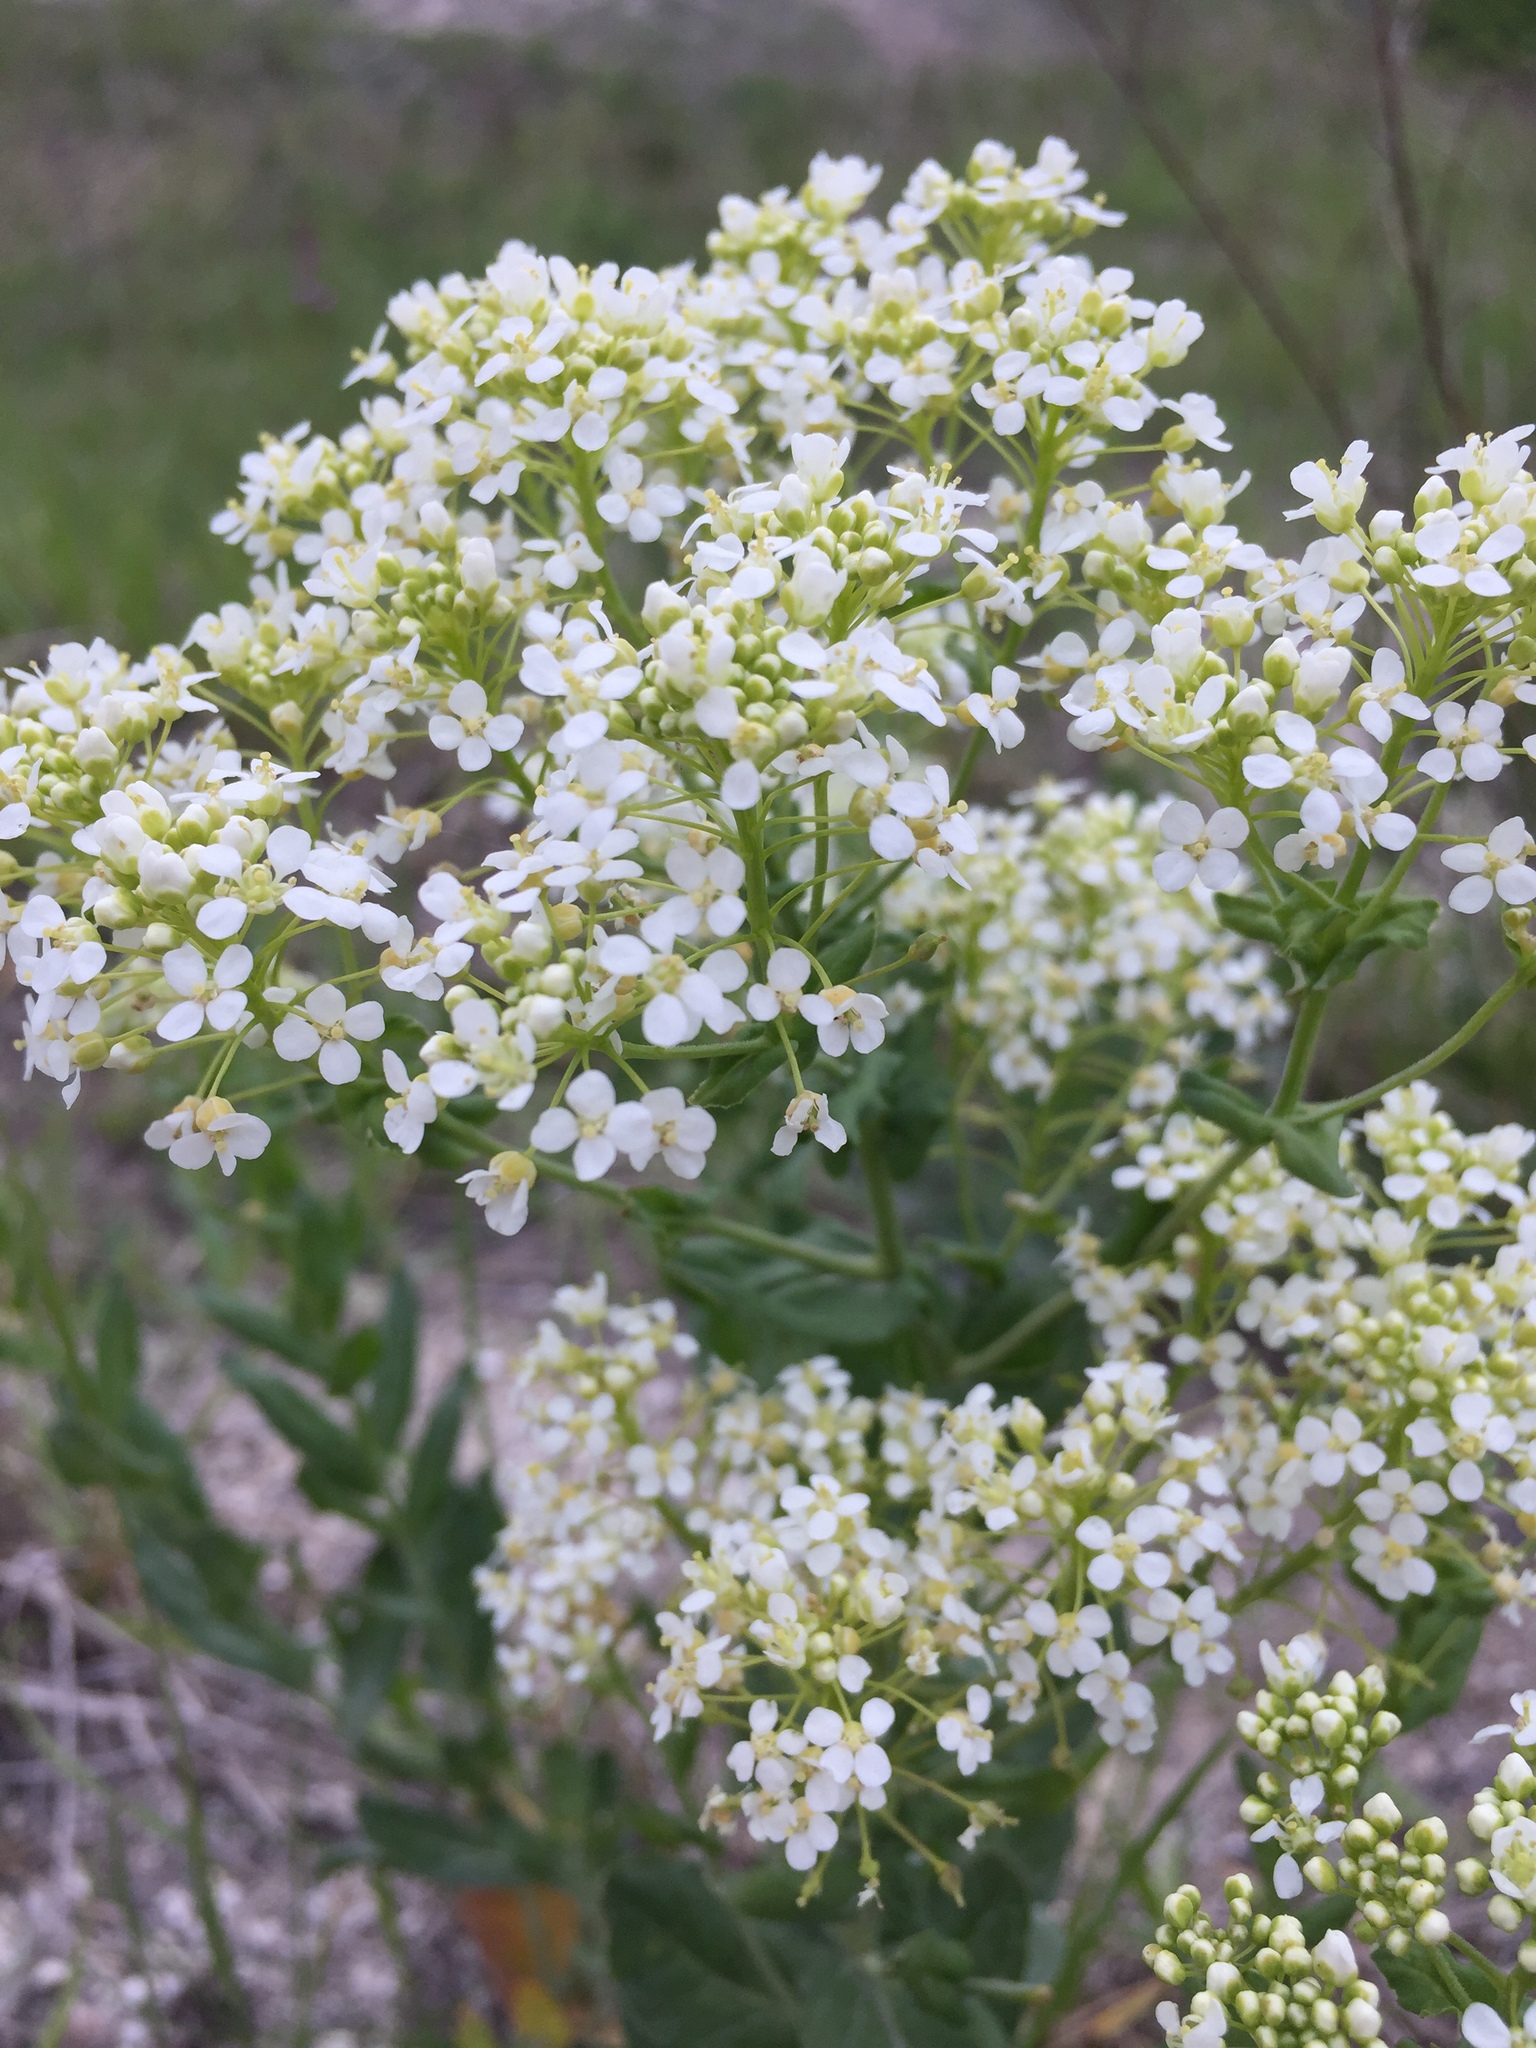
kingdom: Plantae
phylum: Tracheophyta
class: Magnoliopsida
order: Brassicales
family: Brassicaceae
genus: Lepidium
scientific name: Lepidium draba
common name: Hoary cress
